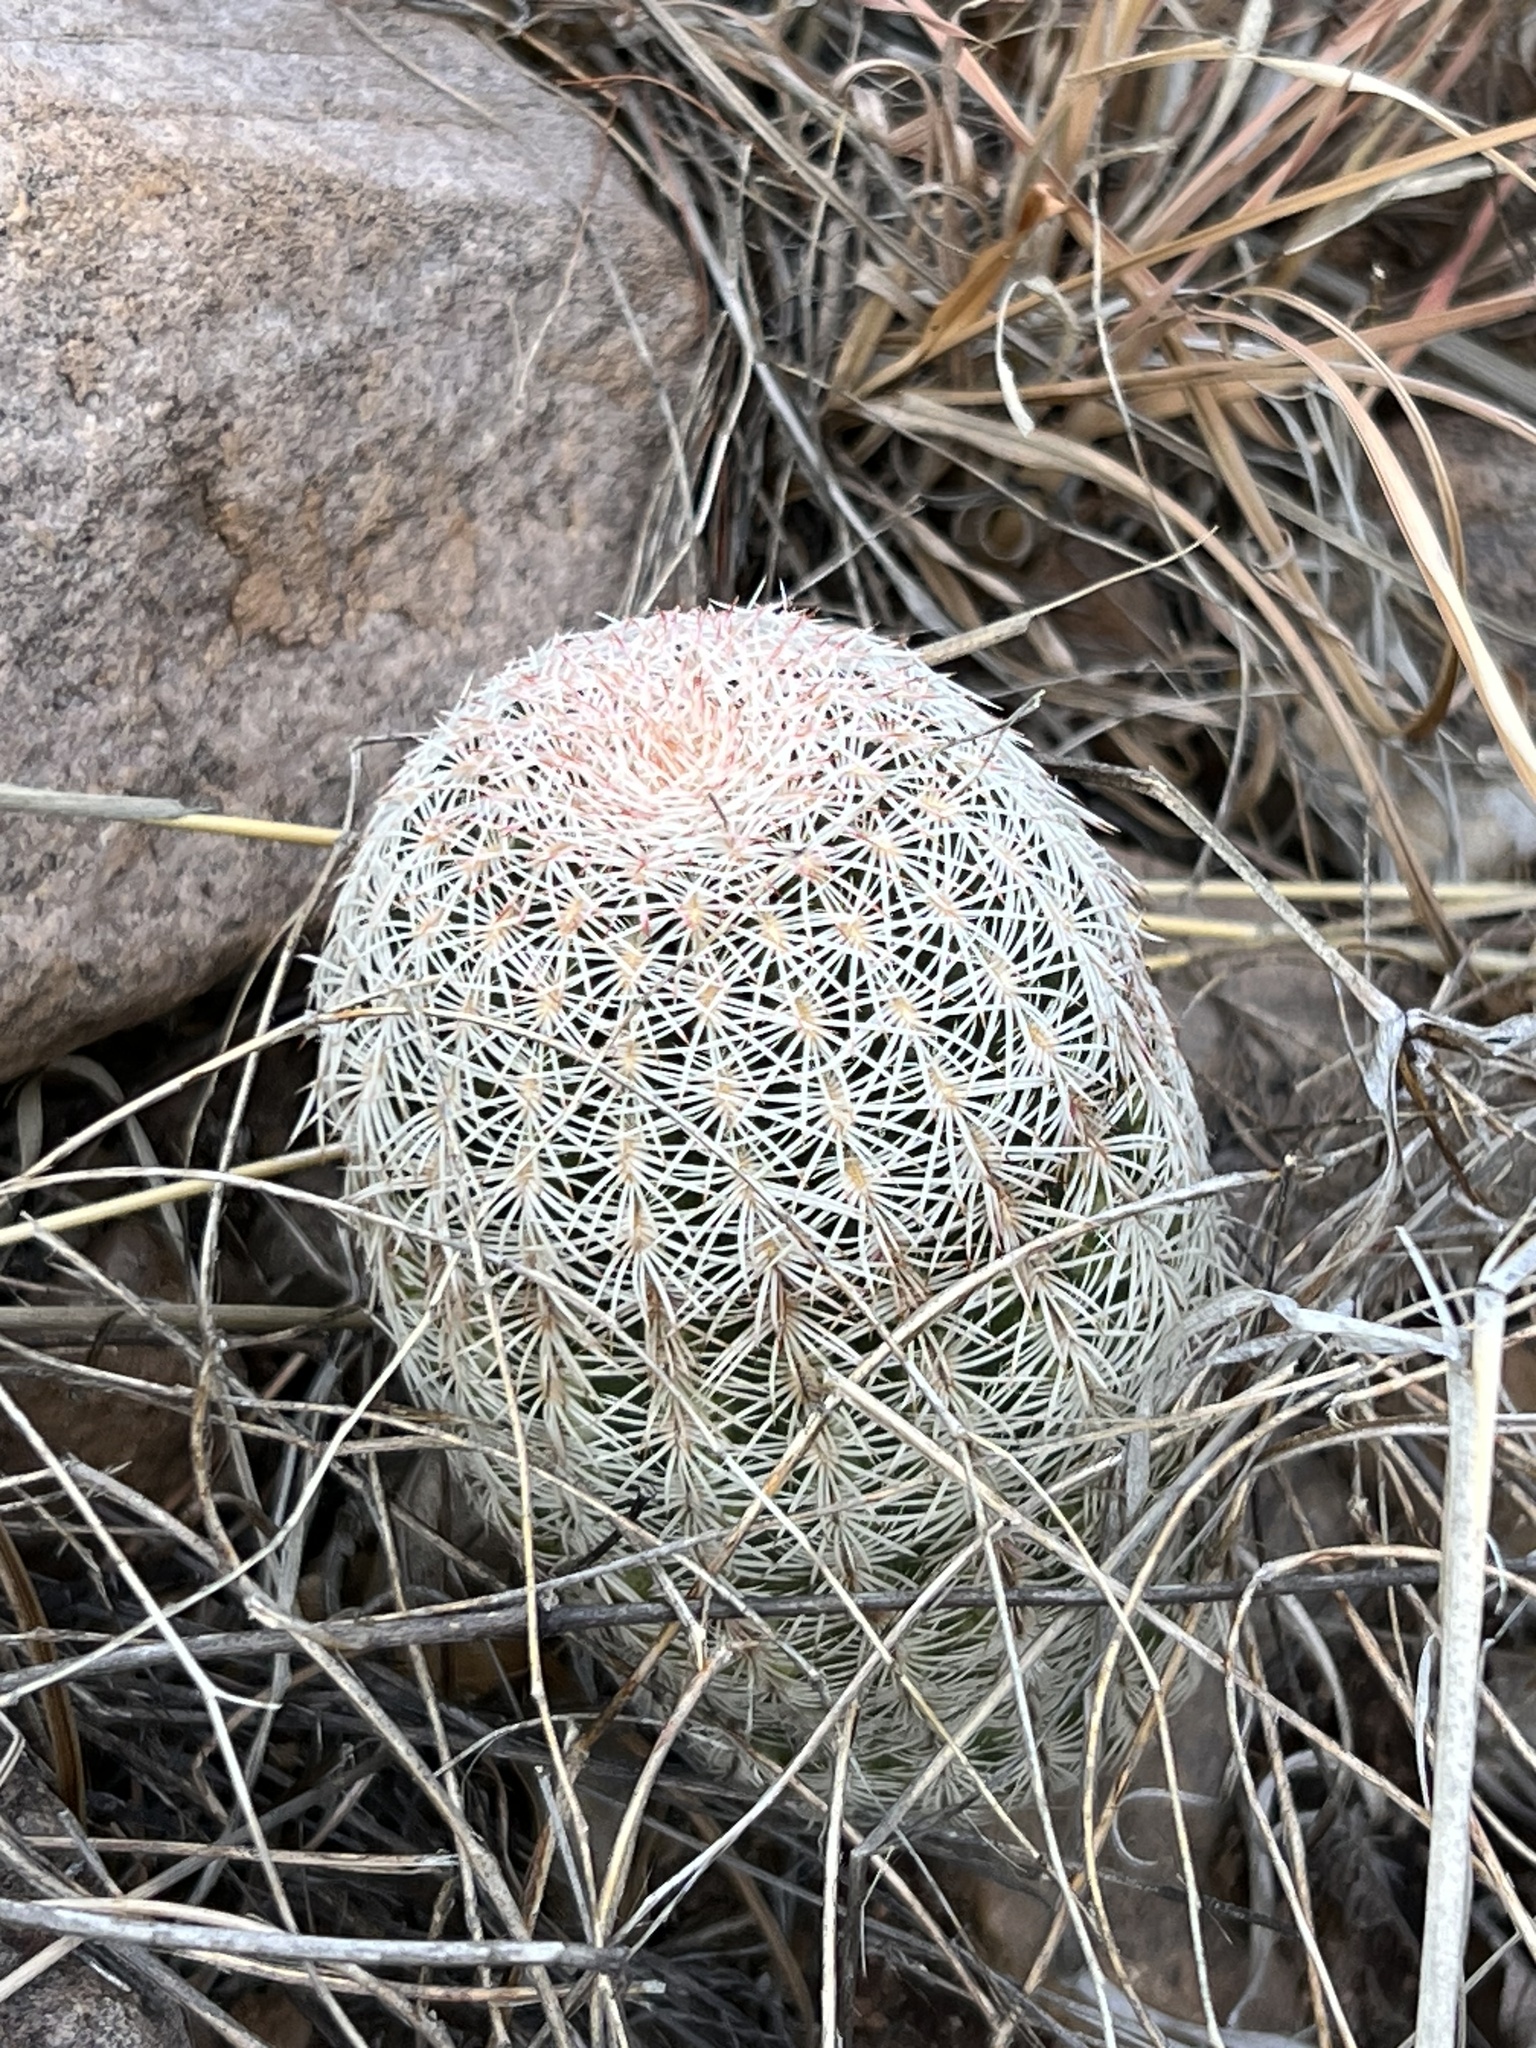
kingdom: Plantae
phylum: Tracheophyta
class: Magnoliopsida
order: Caryophyllales
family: Cactaceae
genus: Echinocereus
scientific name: Echinocereus rigidissimus
